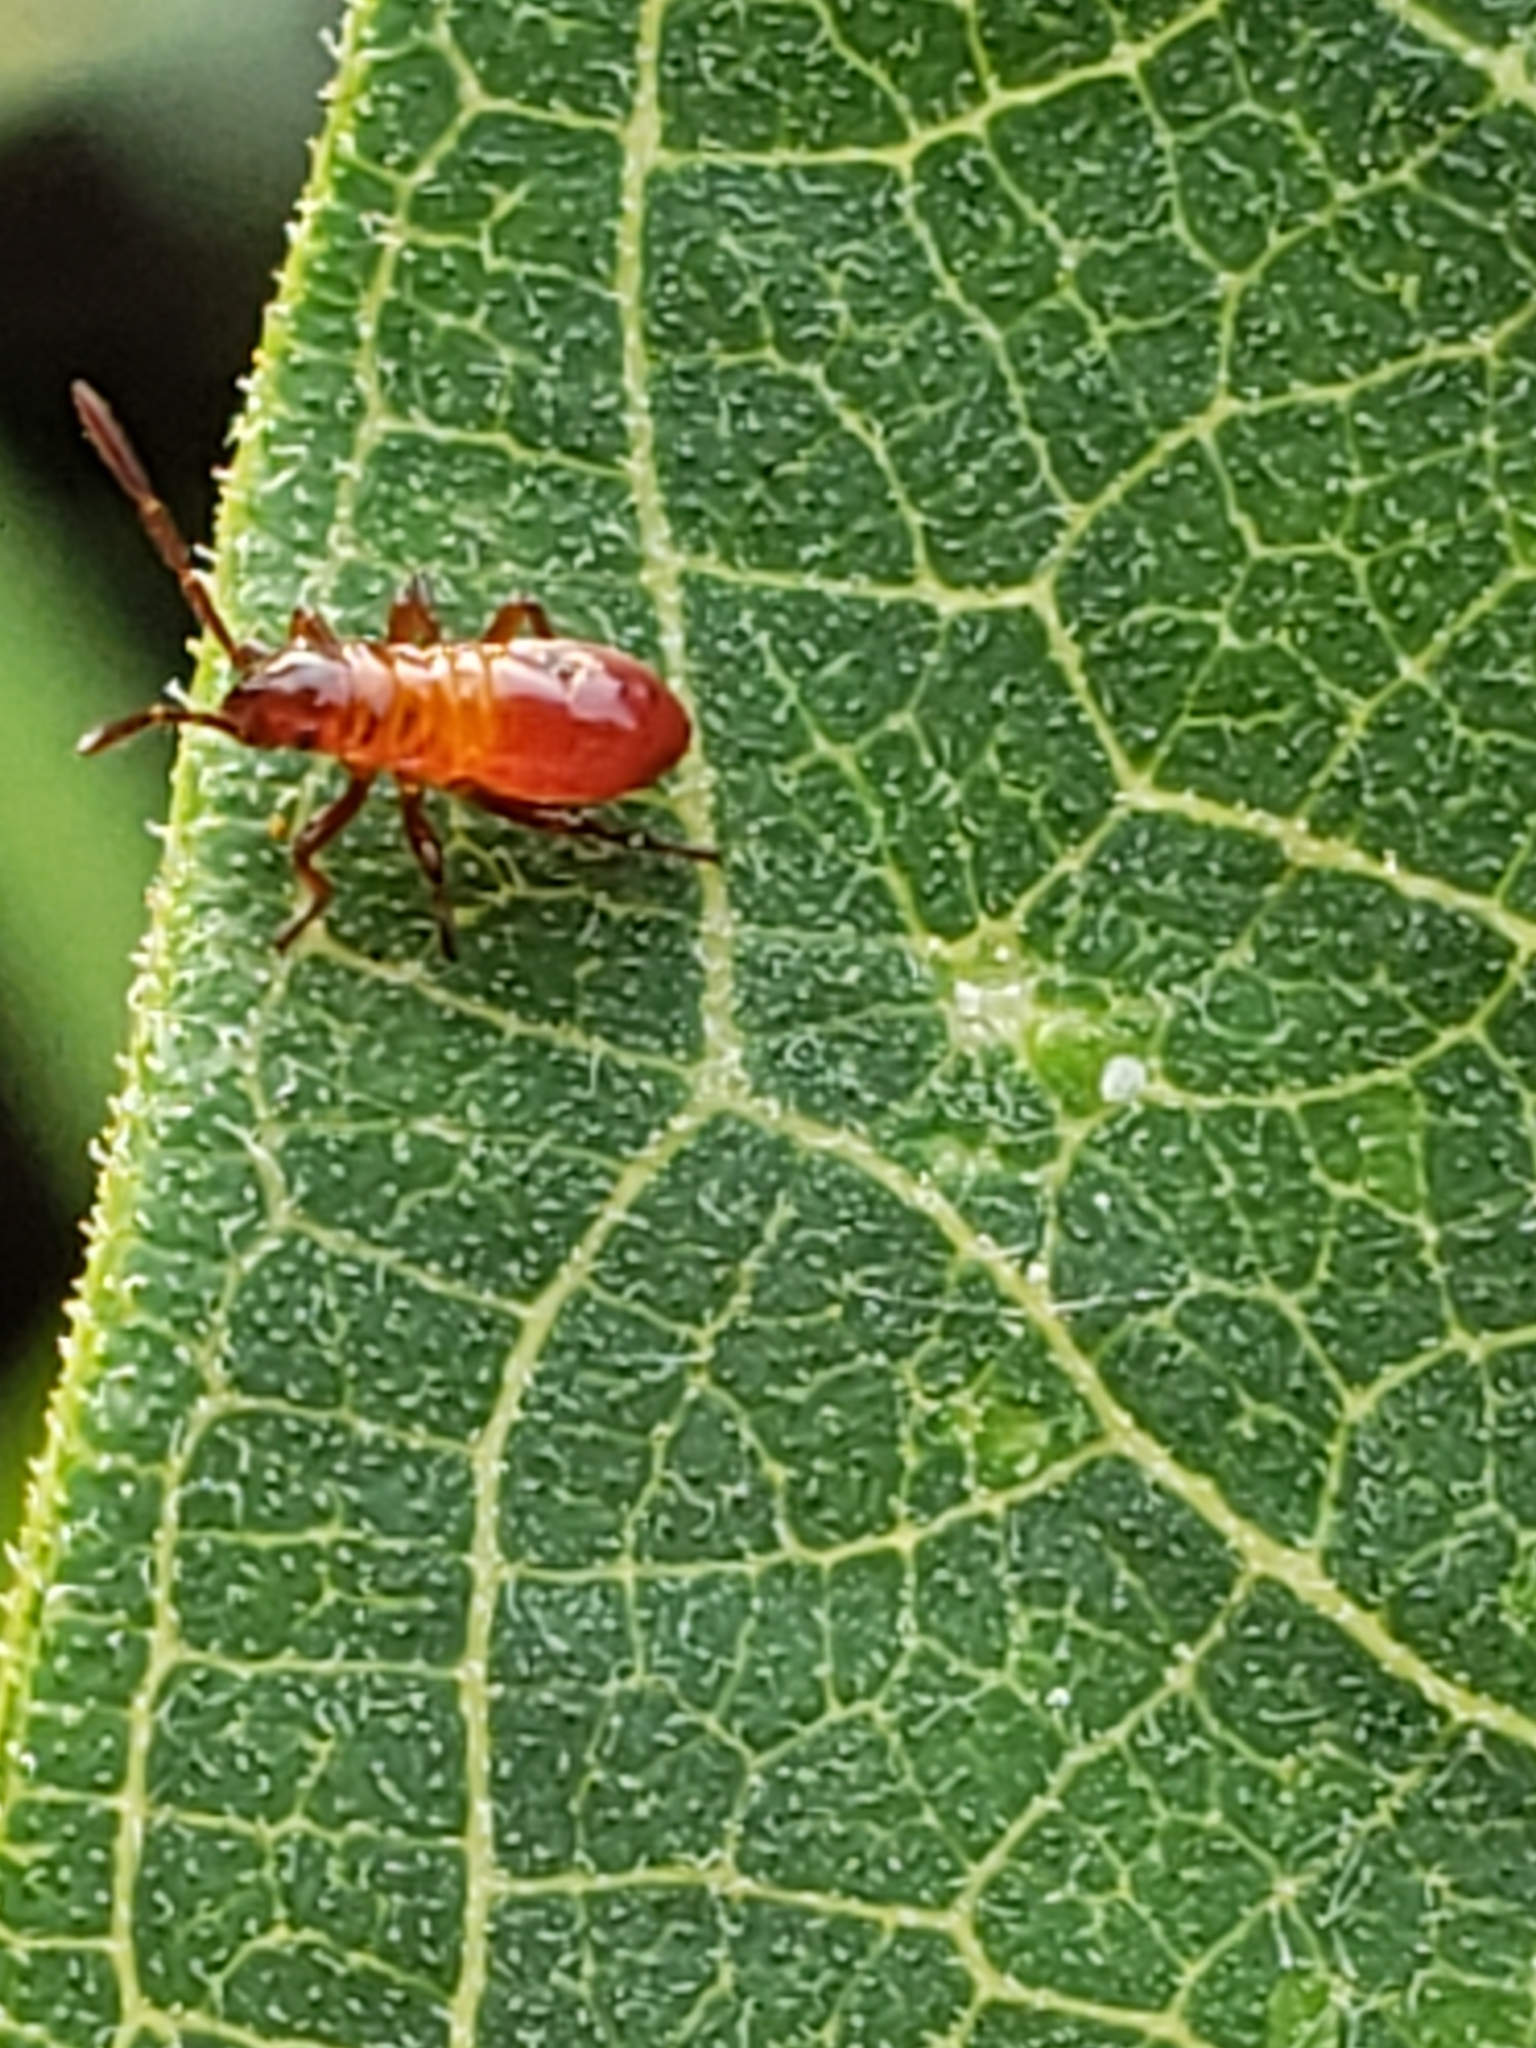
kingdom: Animalia
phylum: Arthropoda
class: Insecta
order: Hemiptera
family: Lygaeidae
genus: Oncopeltus
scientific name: Oncopeltus fasciatus
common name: Large milkweed bug
